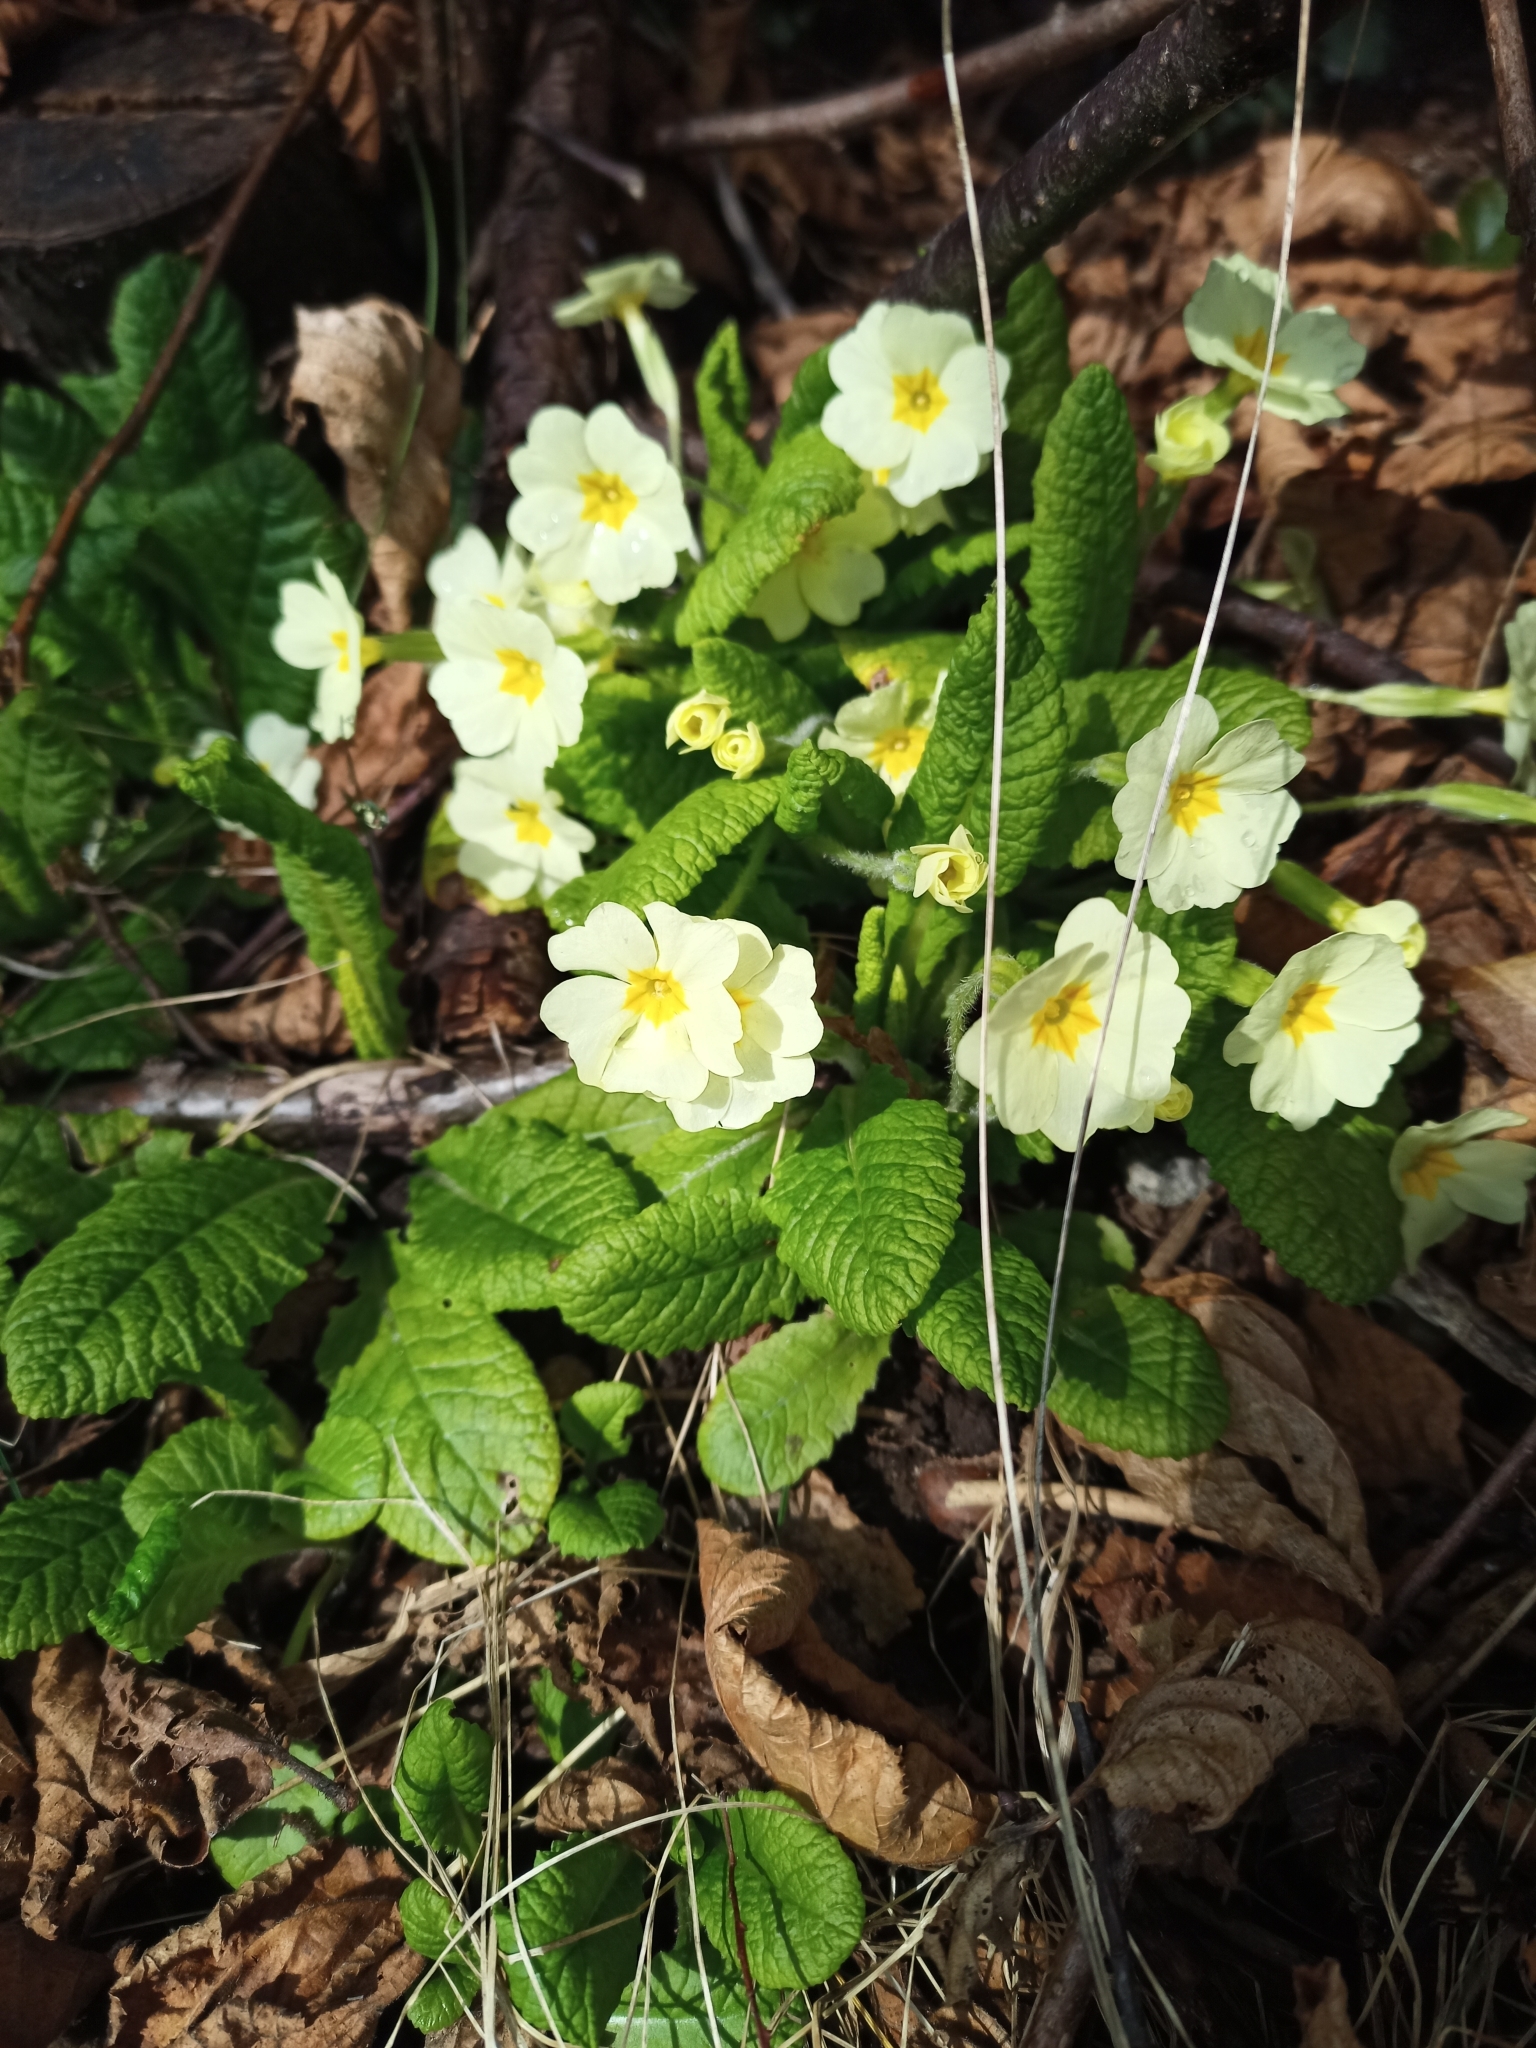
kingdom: Plantae
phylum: Tracheophyta
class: Magnoliopsida
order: Ericales
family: Primulaceae
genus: Primula
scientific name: Primula vulgaris
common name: Primrose
